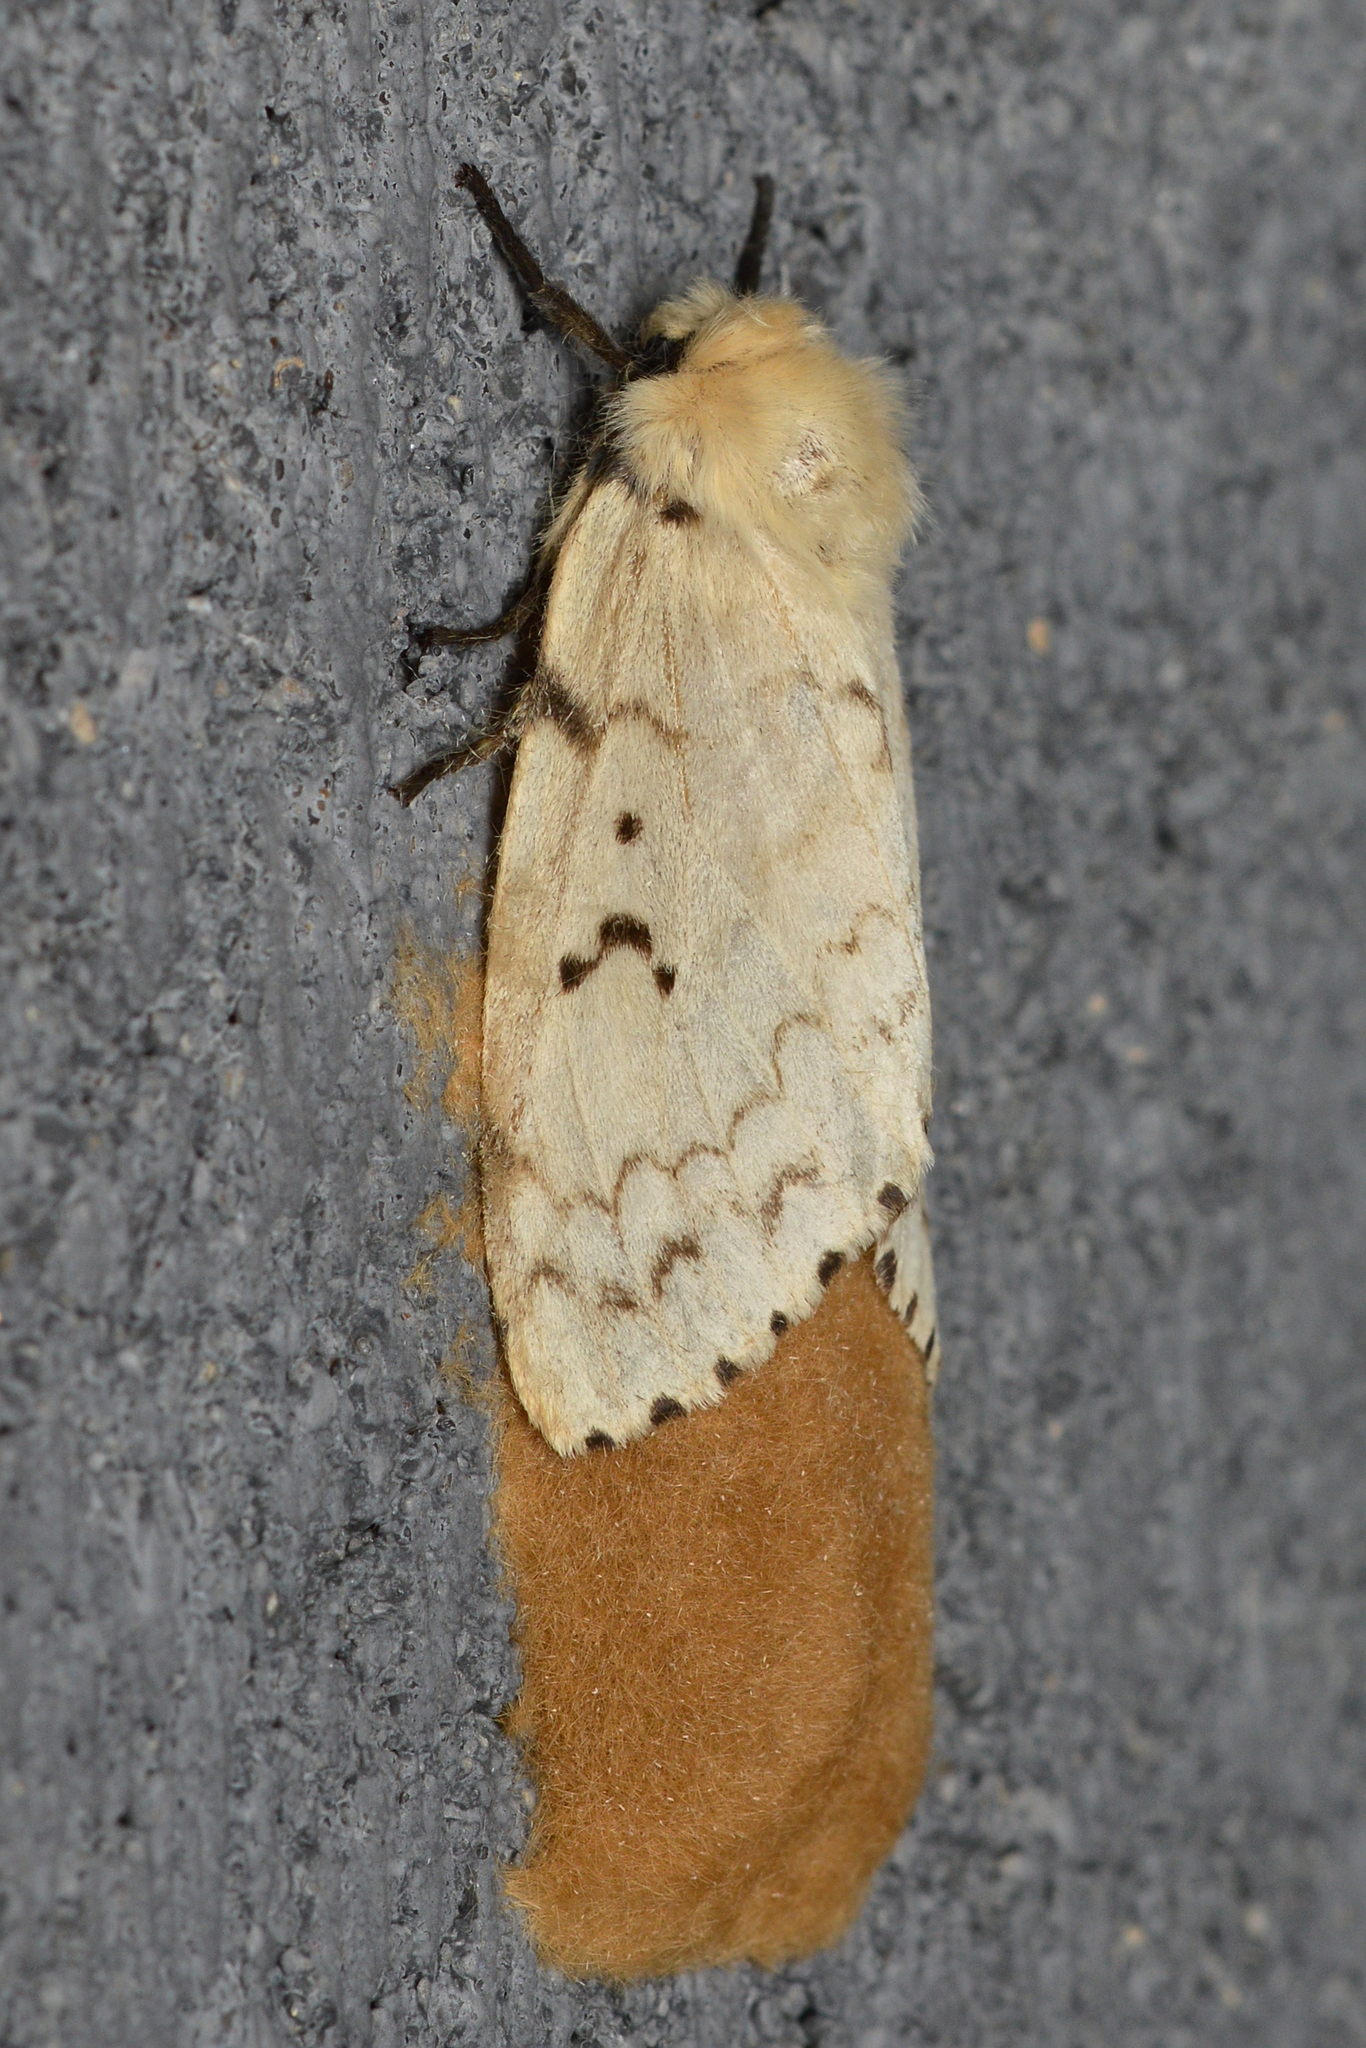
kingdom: Animalia
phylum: Arthropoda
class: Insecta
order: Lepidoptera
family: Erebidae
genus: Lymantria
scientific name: Lymantria dispar
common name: Gypsy moth
